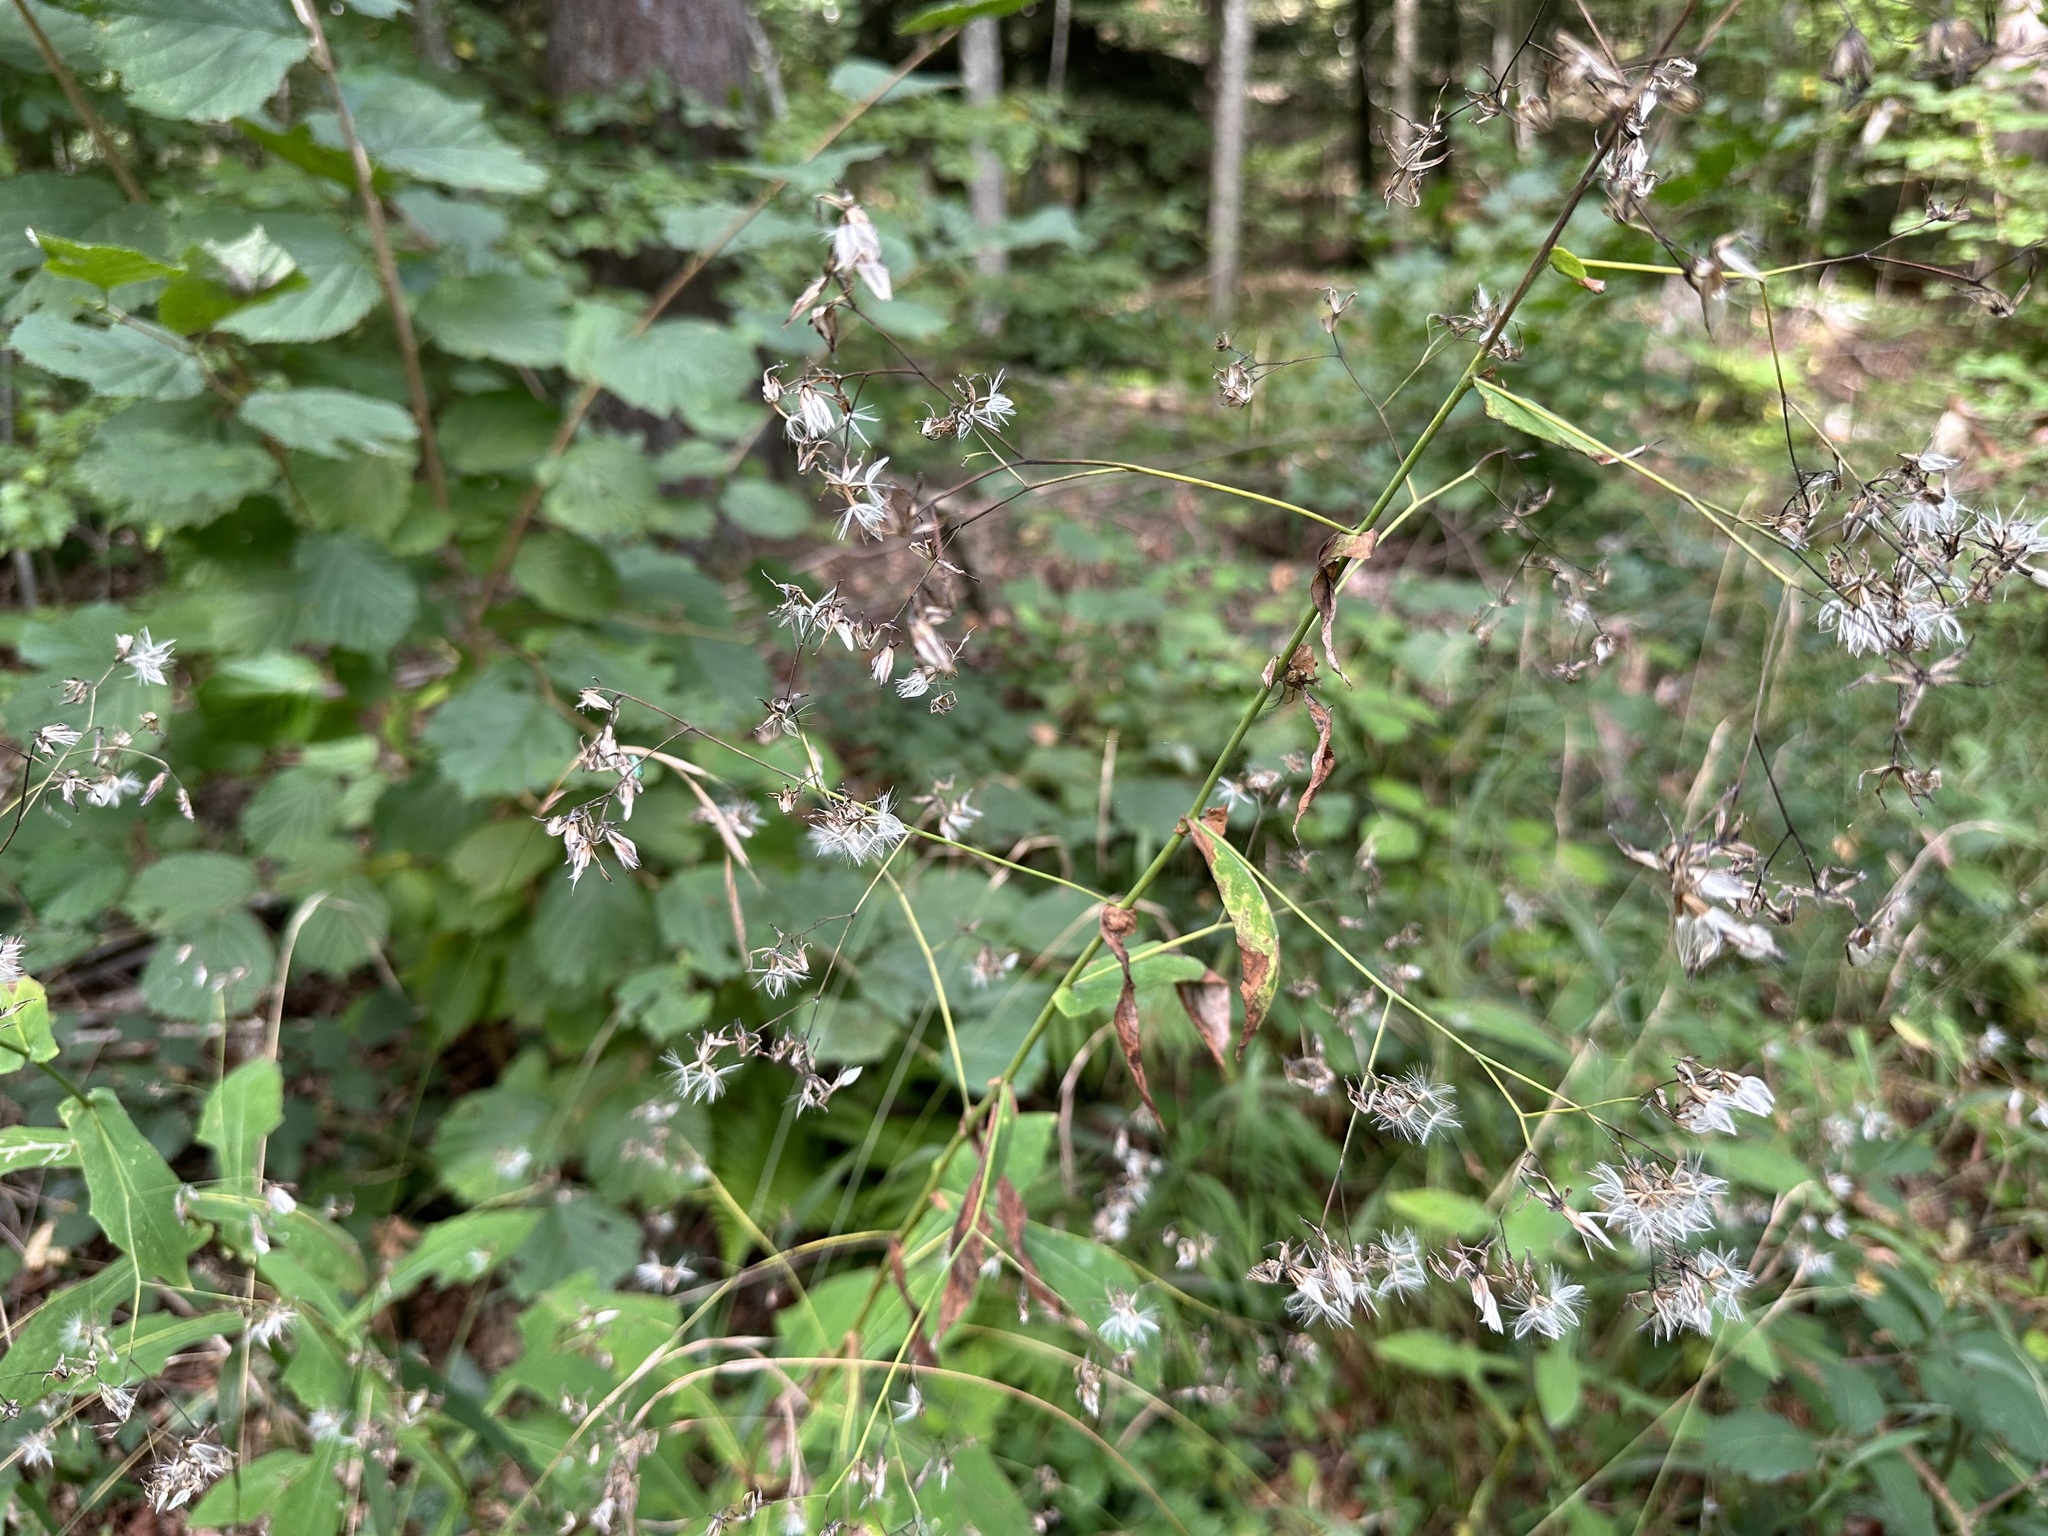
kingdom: Plantae
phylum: Tracheophyta
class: Magnoliopsida
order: Asterales
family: Asteraceae
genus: Prenanthes
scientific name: Prenanthes purpurea
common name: Purple lettuce
